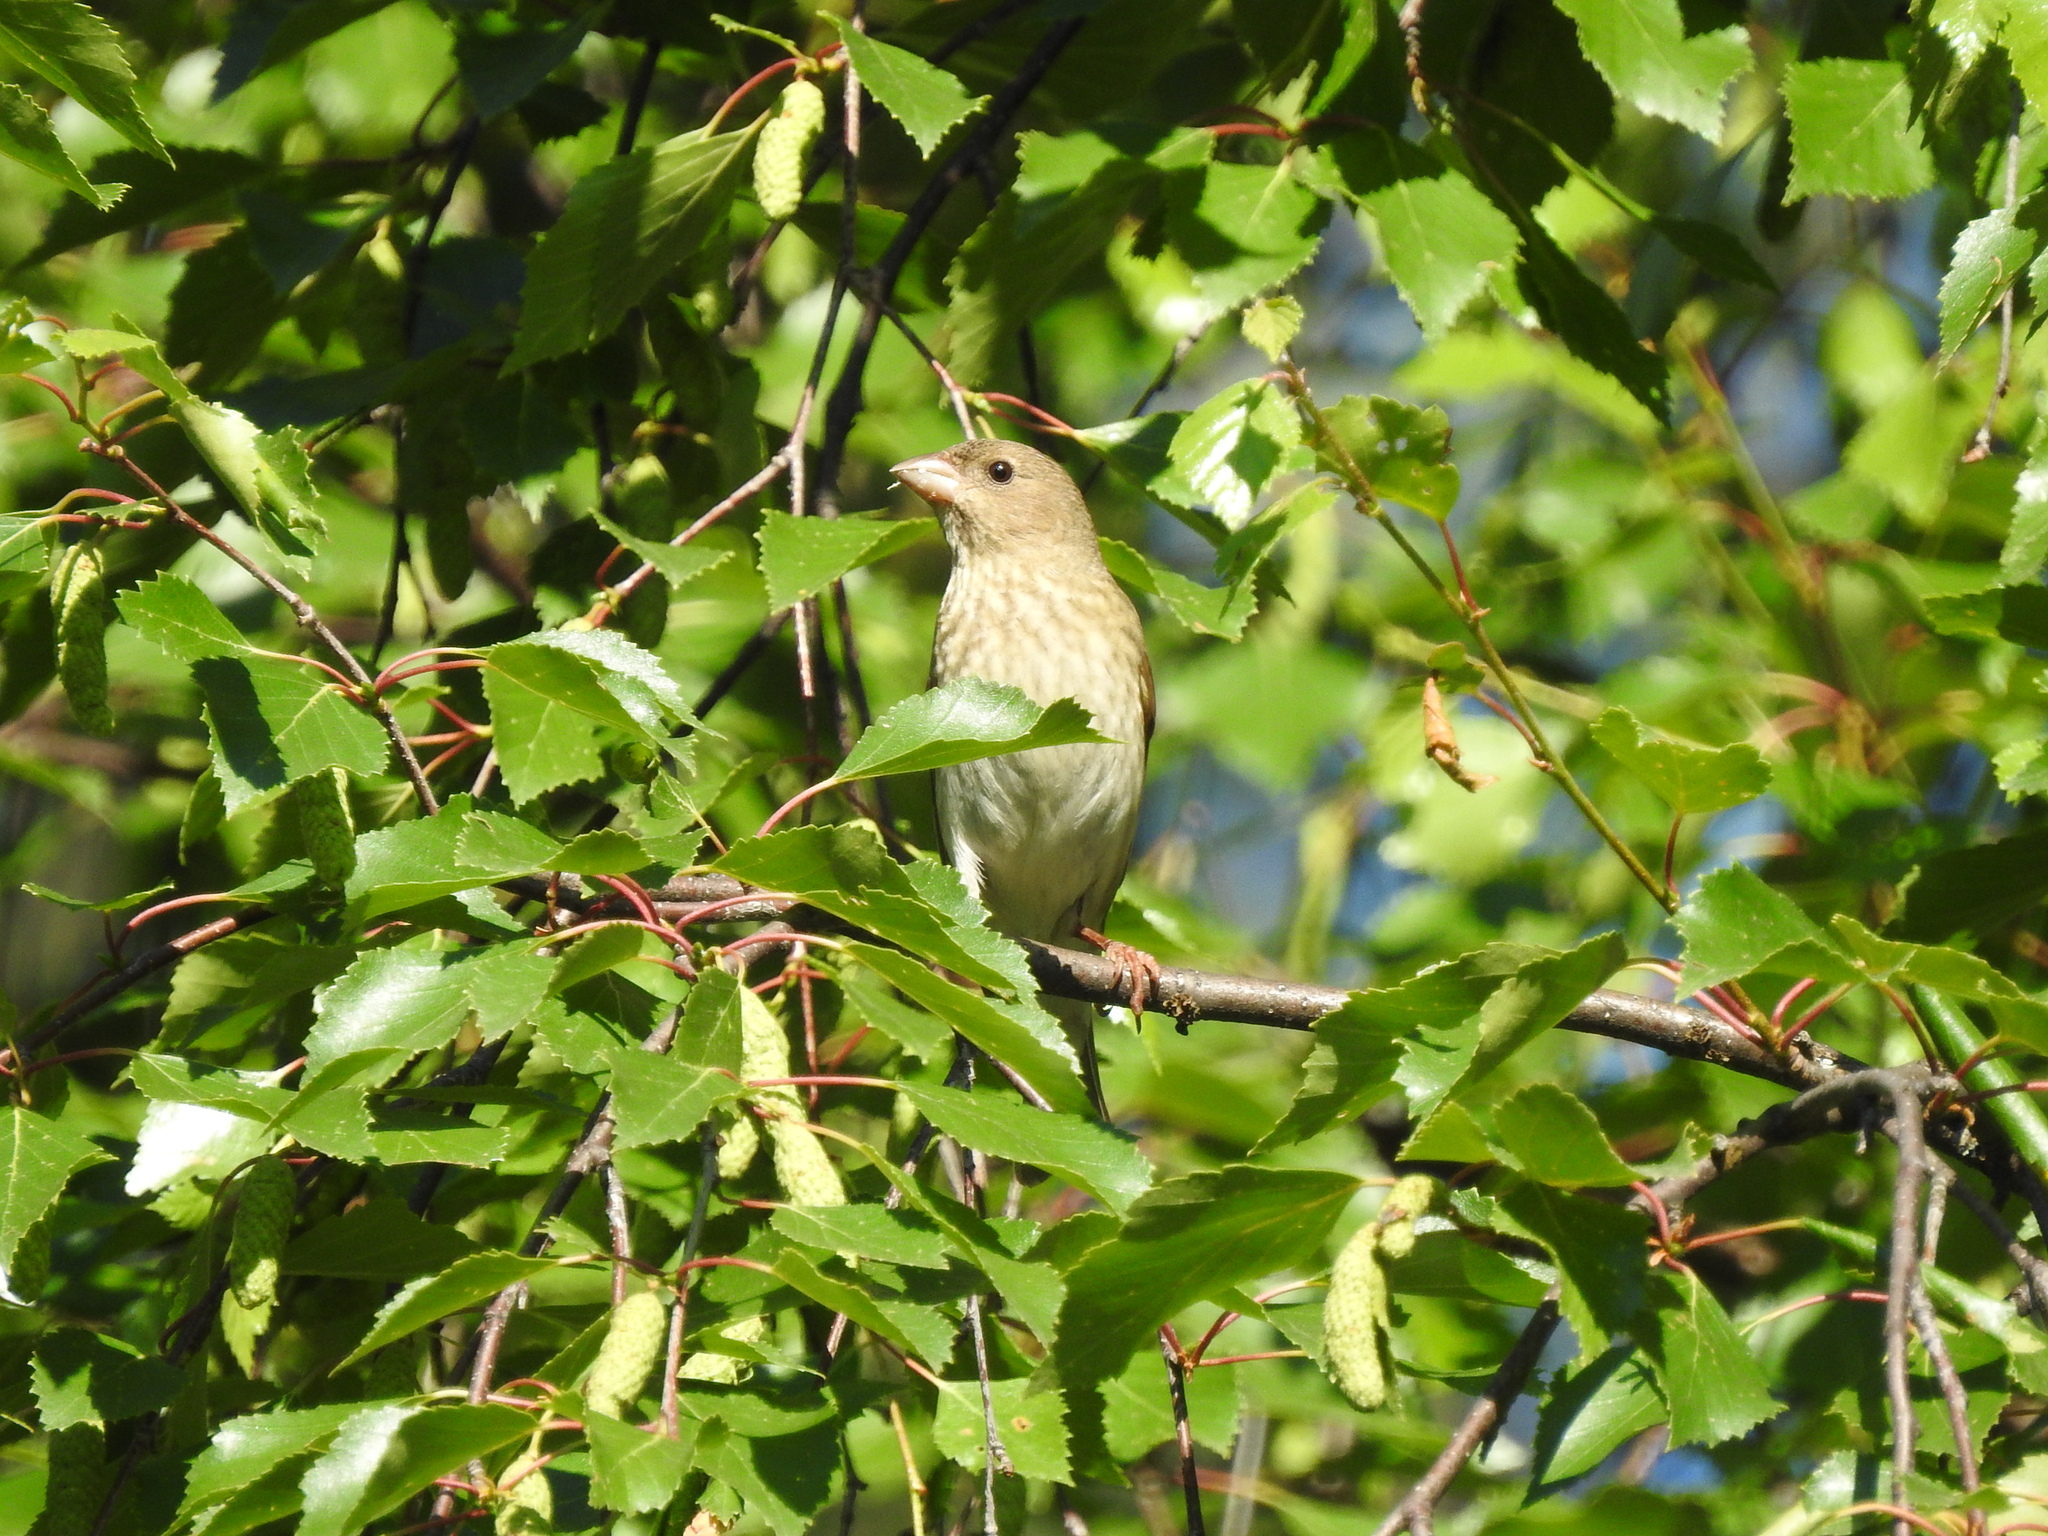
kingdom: Animalia
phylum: Chordata
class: Aves
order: Passeriformes
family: Fringillidae
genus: Carpodacus
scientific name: Carpodacus erythrinus
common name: Common rosefinch
